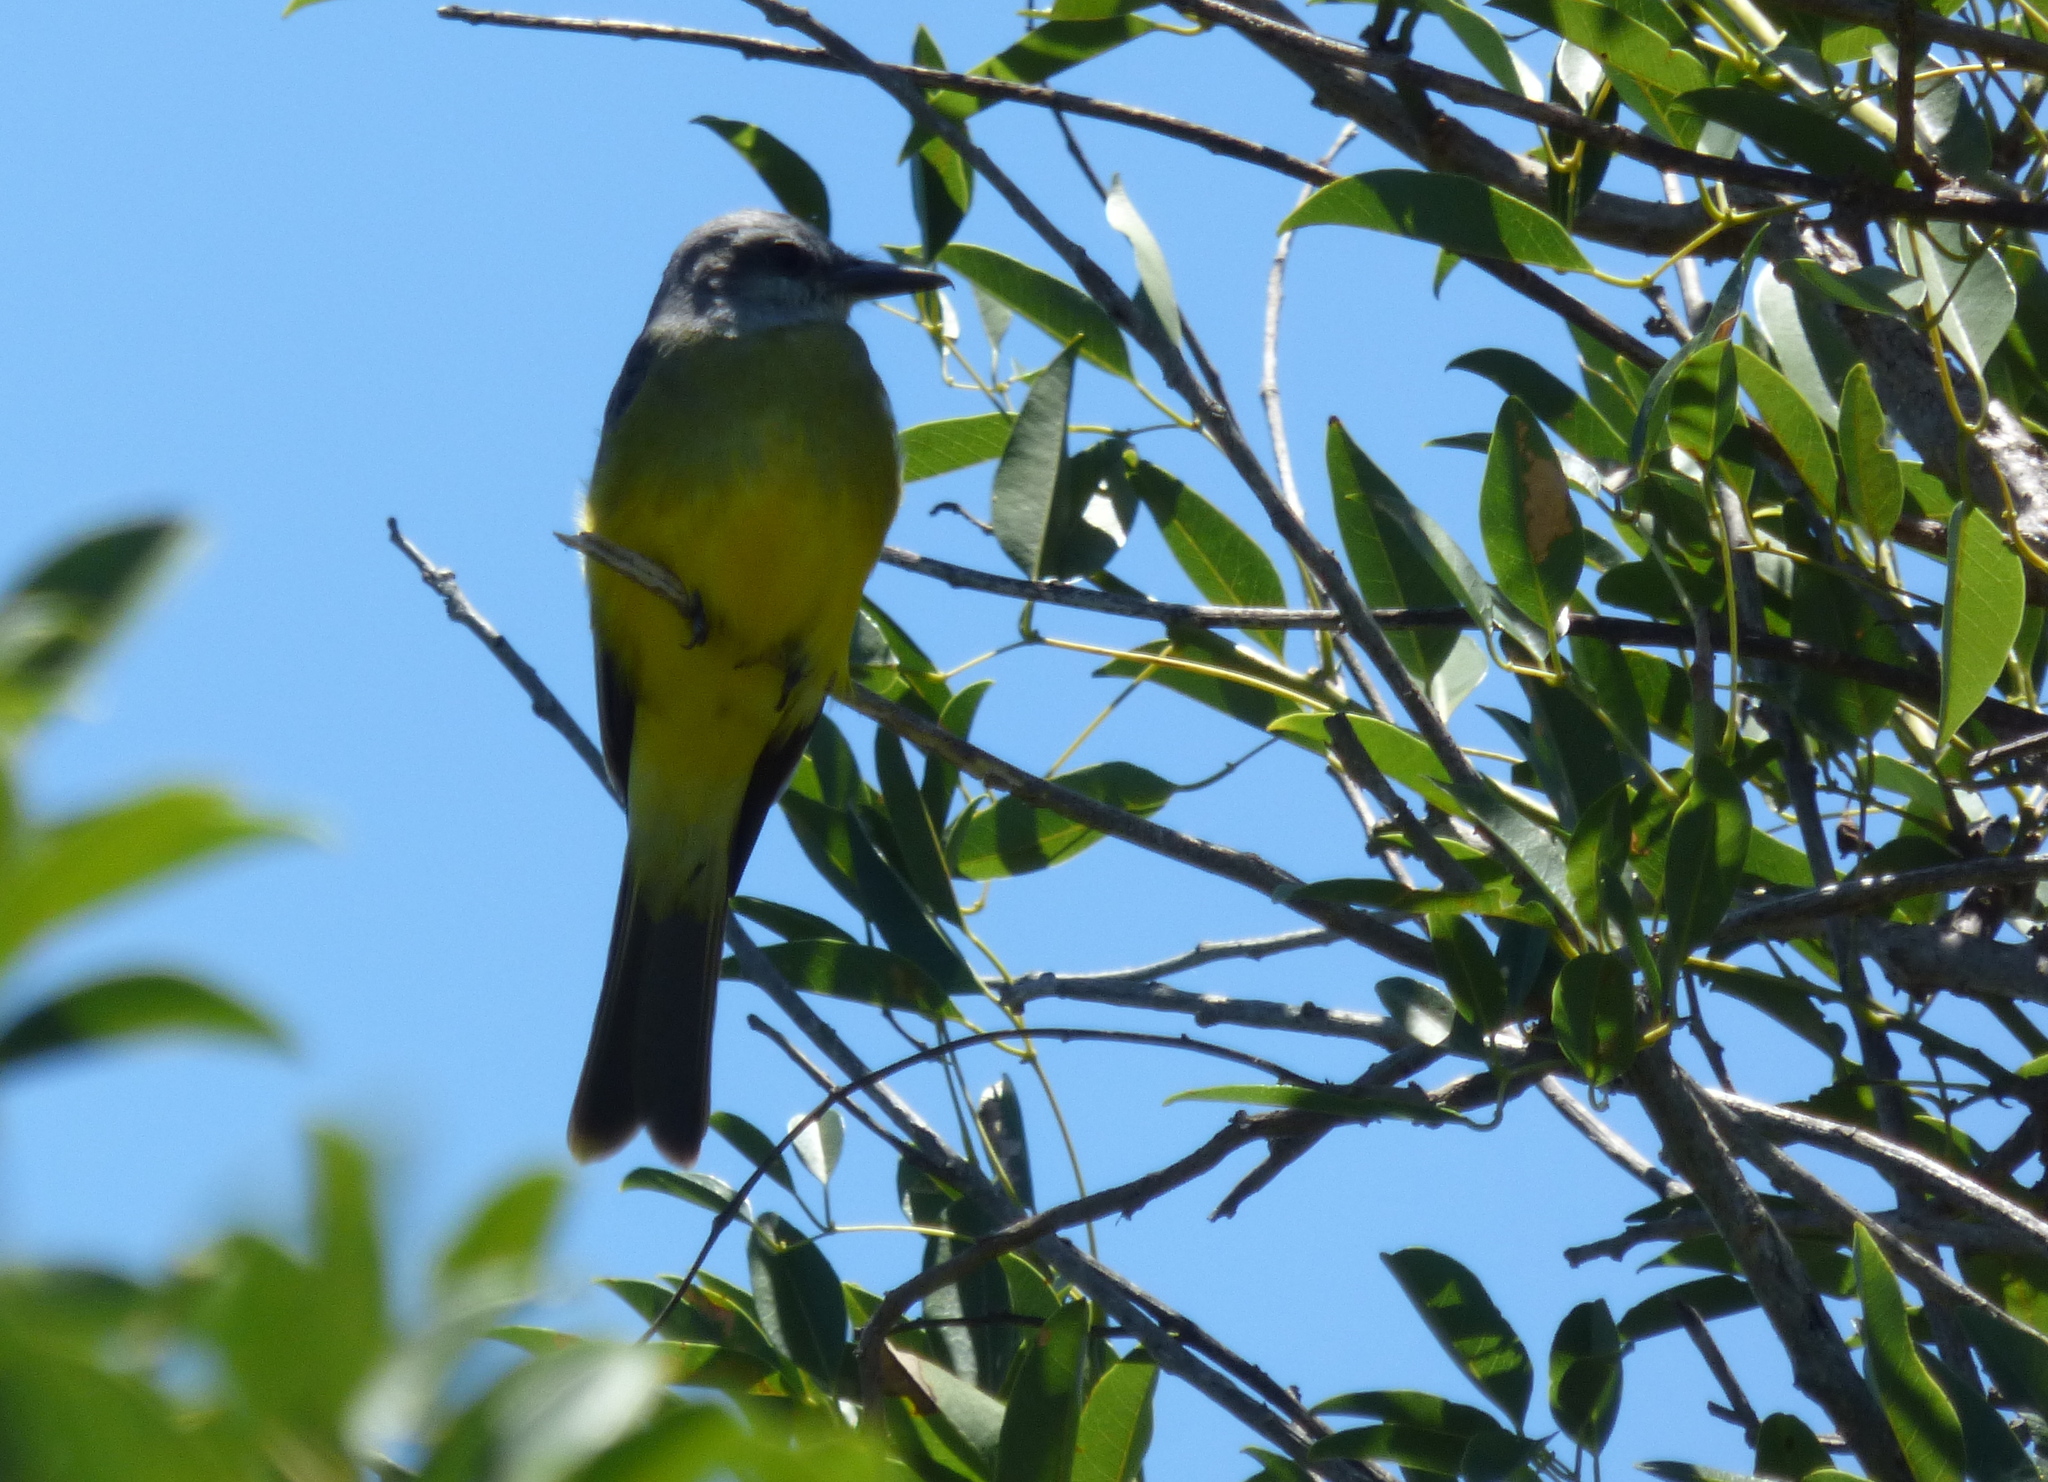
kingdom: Animalia
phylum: Chordata
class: Aves
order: Passeriformes
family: Tyrannidae
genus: Tyrannus
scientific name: Tyrannus melancholicus
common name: Tropical kingbird
